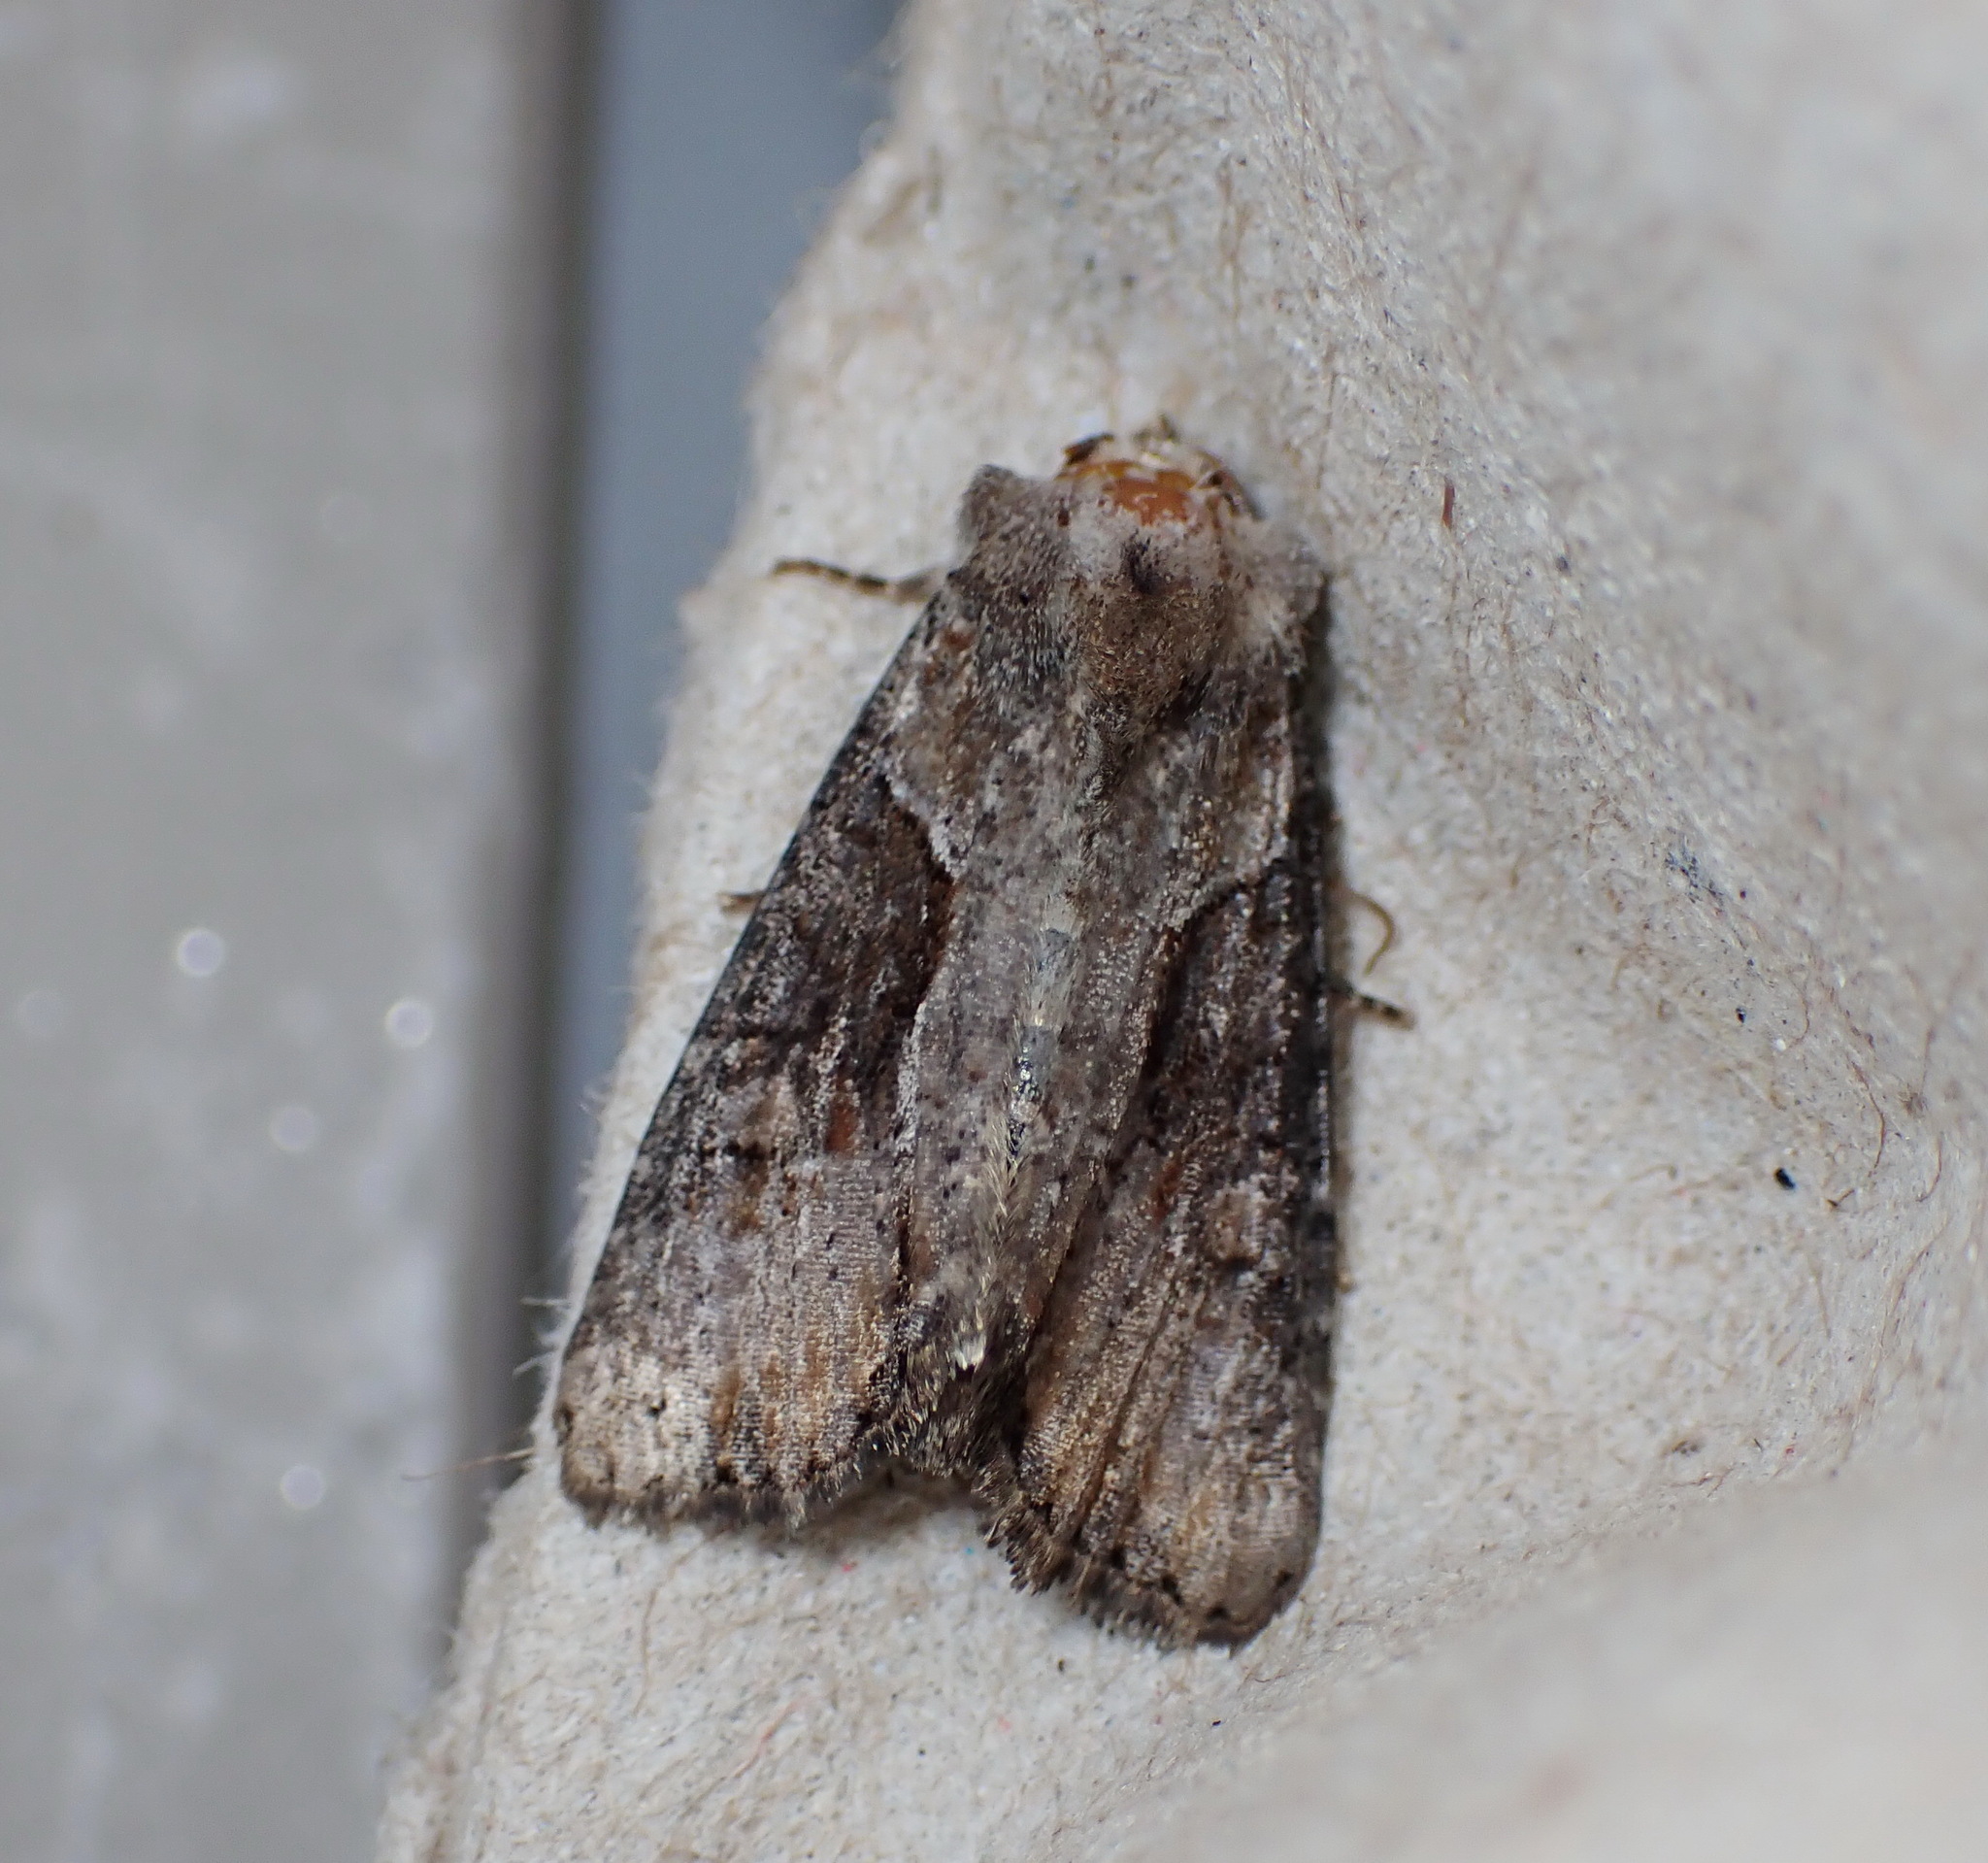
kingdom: Animalia
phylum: Arthropoda
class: Insecta
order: Lepidoptera
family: Noctuidae
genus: Lateroligia
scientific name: Lateroligia ophiogramma
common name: Double lobed
